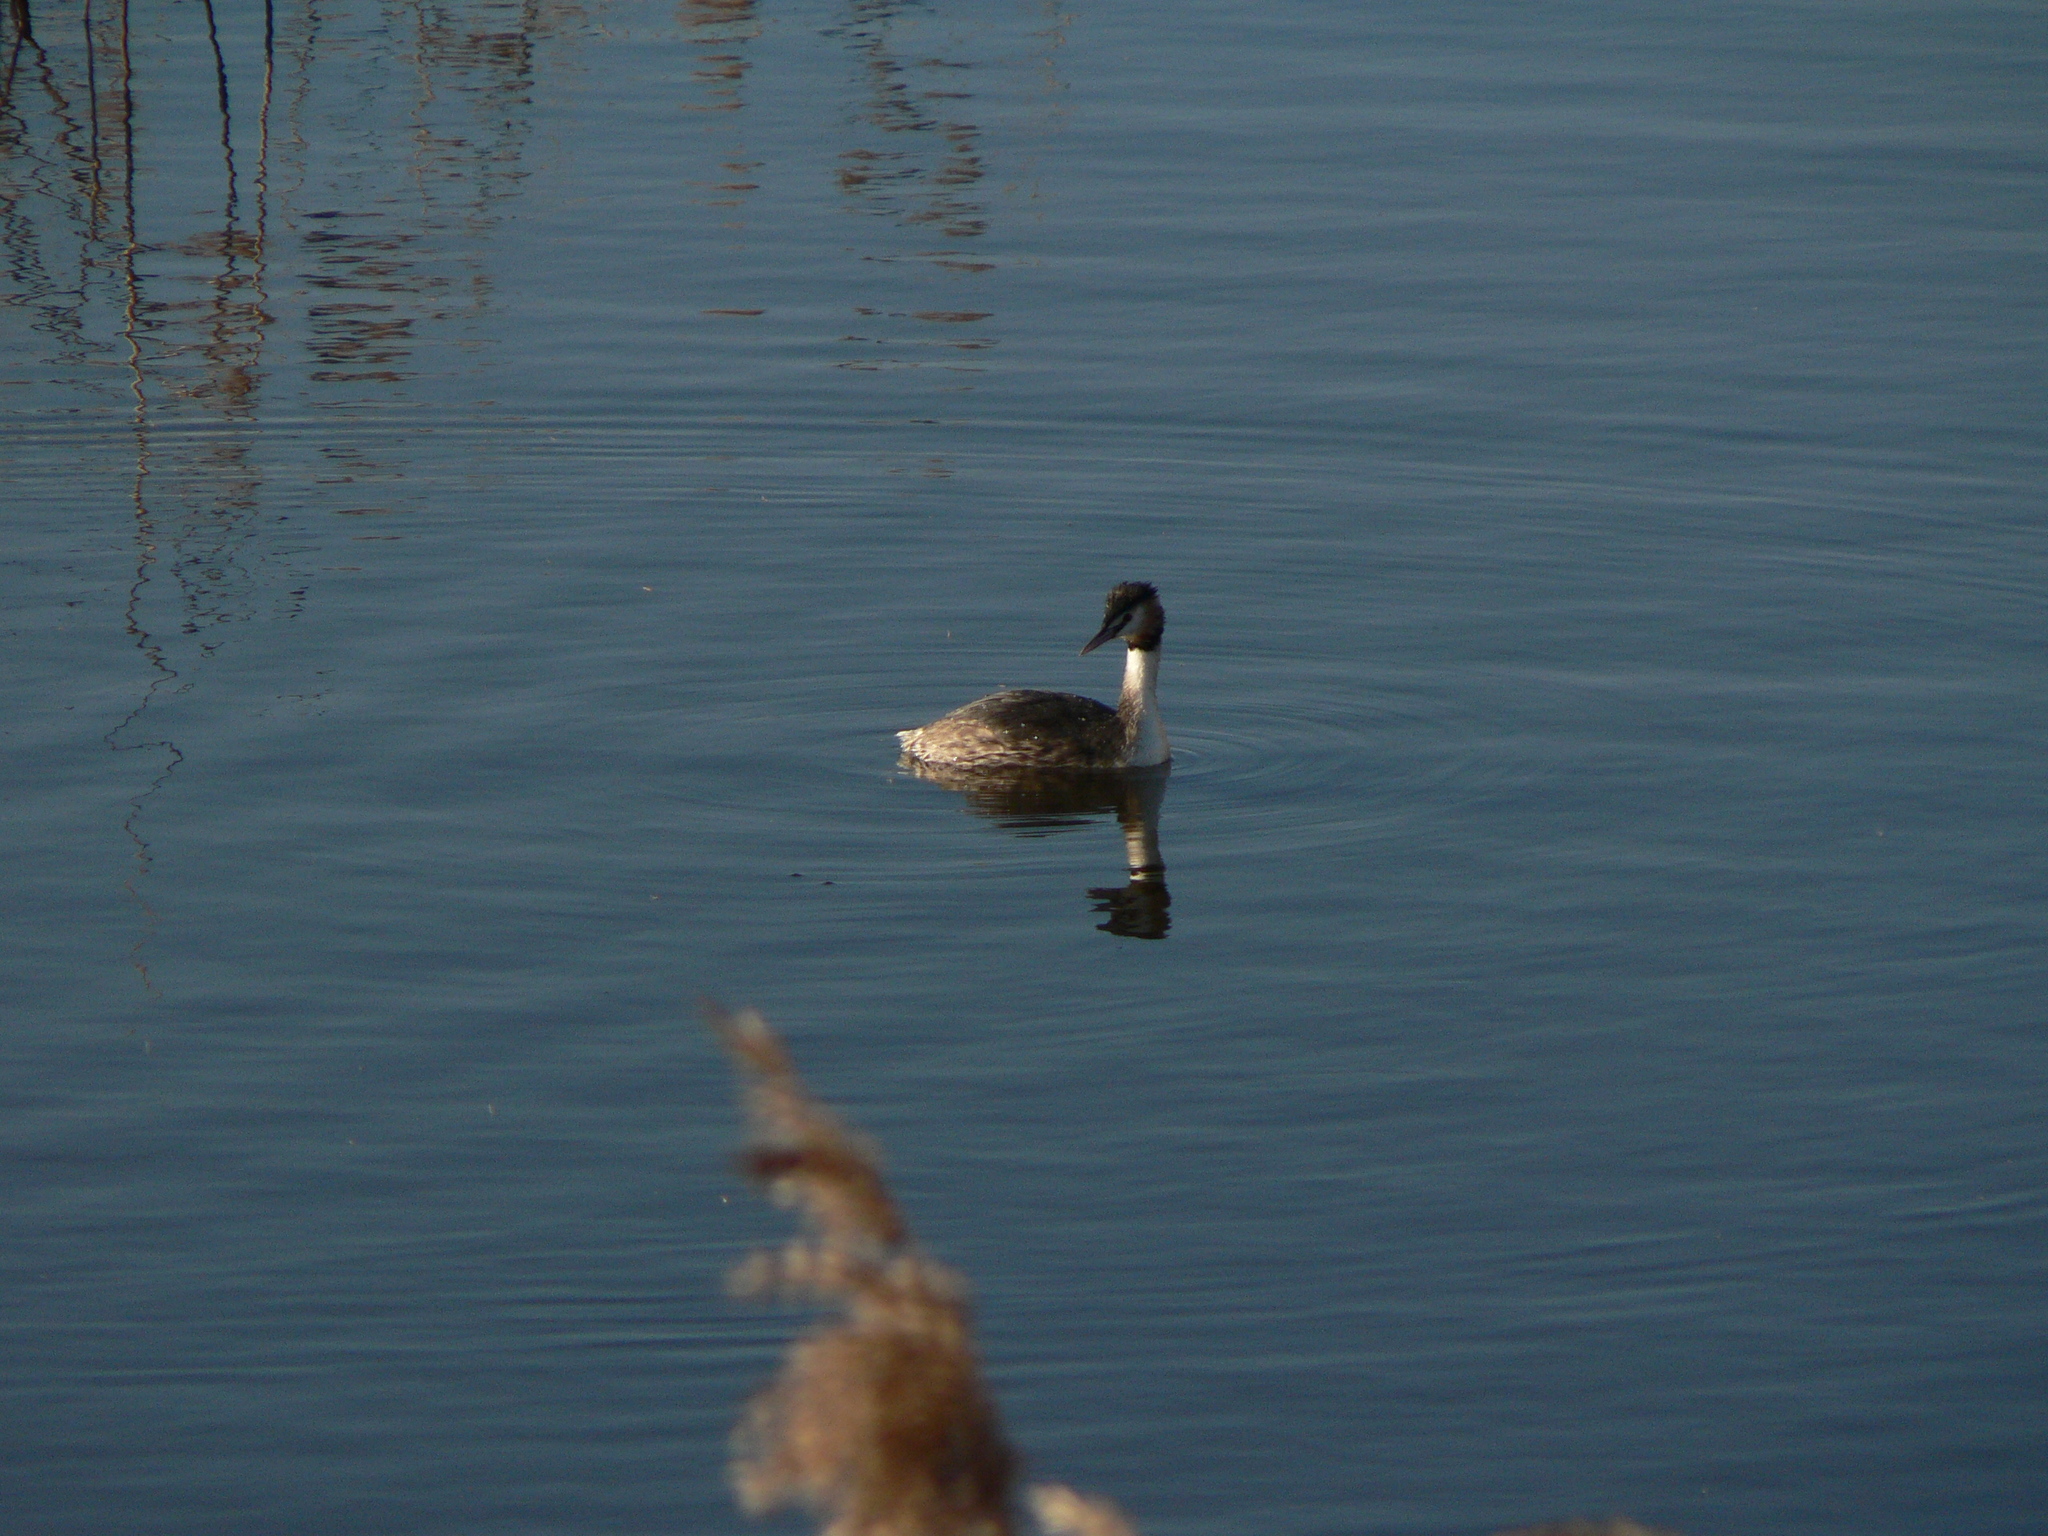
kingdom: Animalia
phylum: Chordata
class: Aves
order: Podicipediformes
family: Podicipedidae
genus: Podiceps
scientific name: Podiceps cristatus
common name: Great crested grebe
